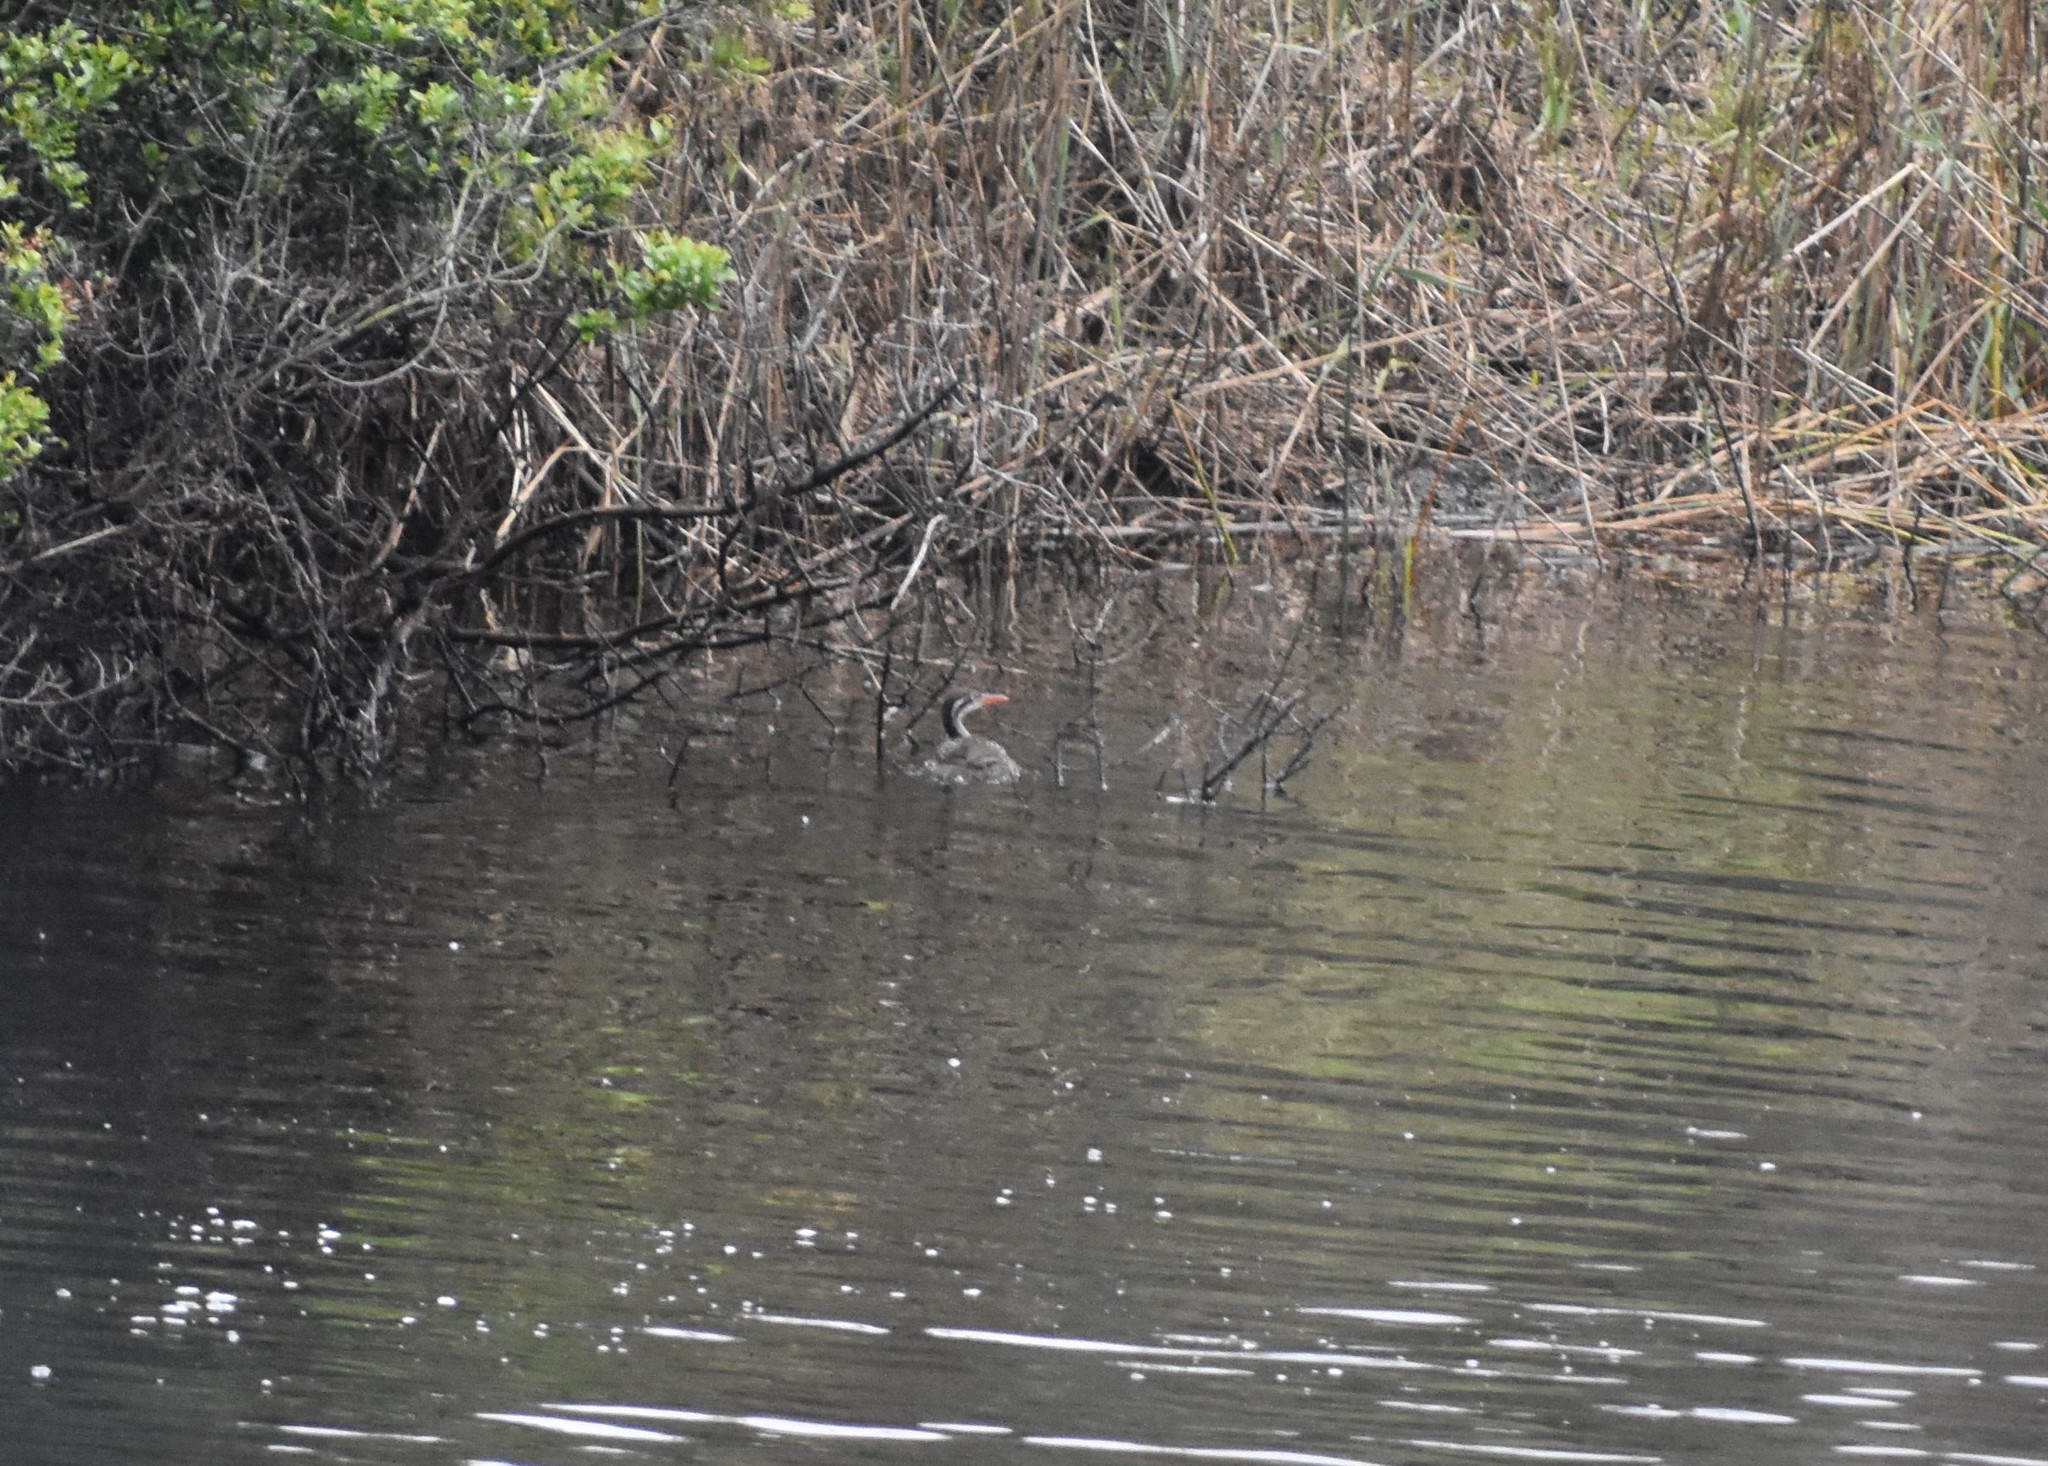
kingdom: Animalia
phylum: Chordata
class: Aves
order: Gruiformes
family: Heliornithidae
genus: Podica
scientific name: Podica senegalensis
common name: African finfoot
